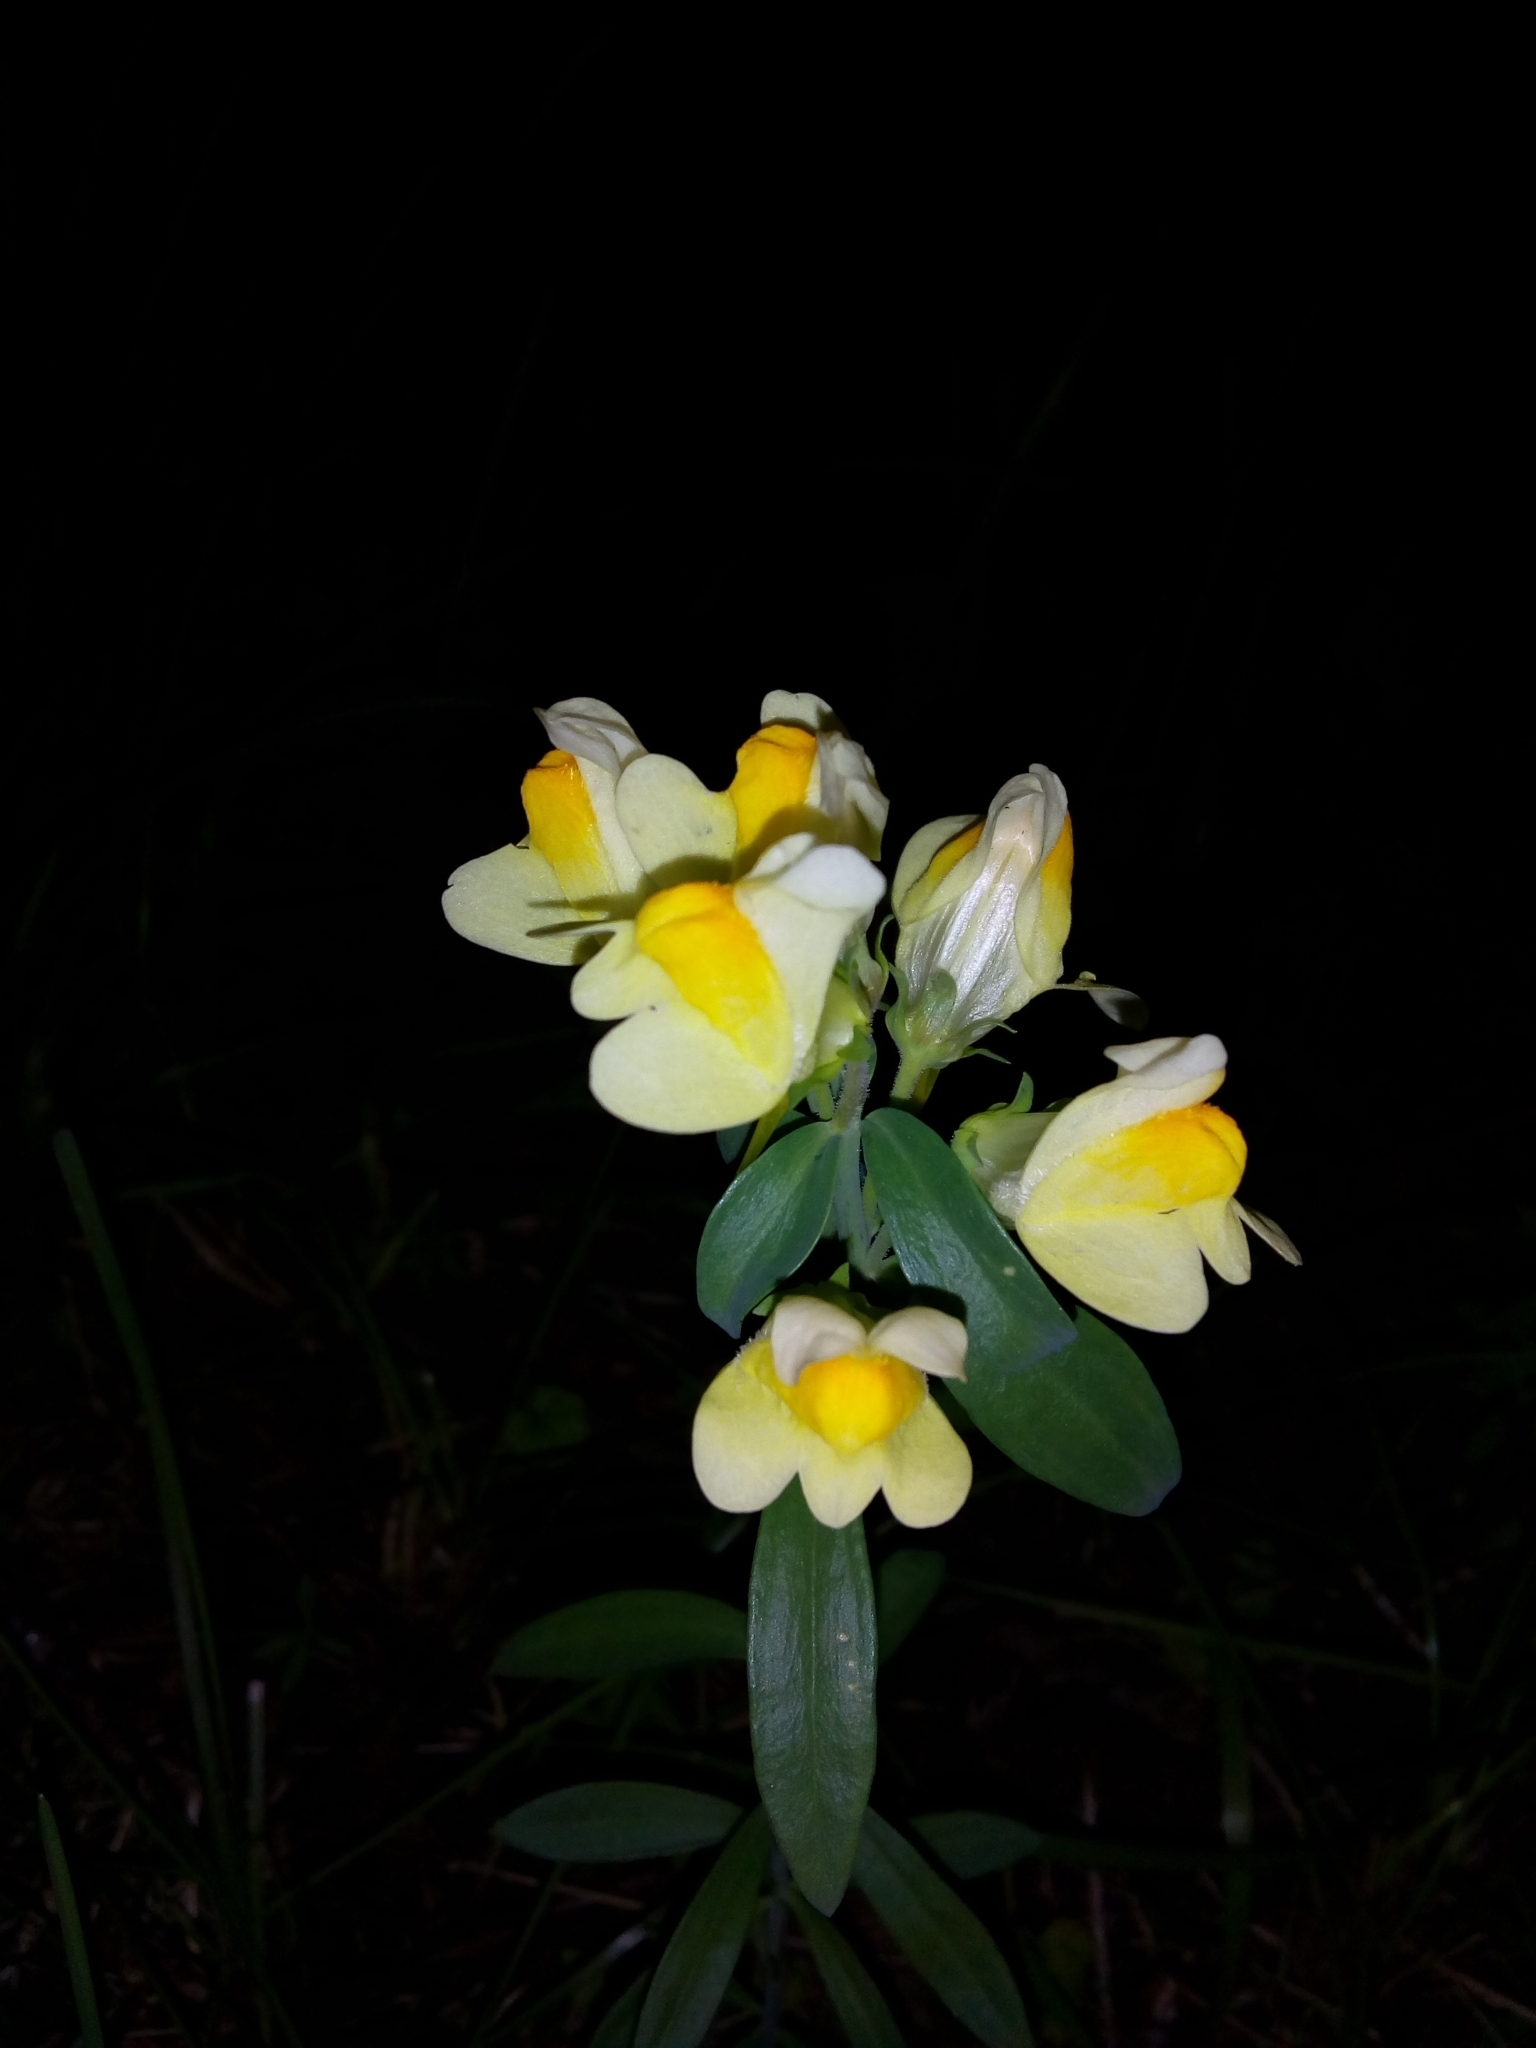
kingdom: Plantae
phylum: Tracheophyta
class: Magnoliopsida
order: Lamiales
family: Plantaginaceae
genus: Linaria
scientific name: Linaria vulgaris
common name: Butter and eggs
